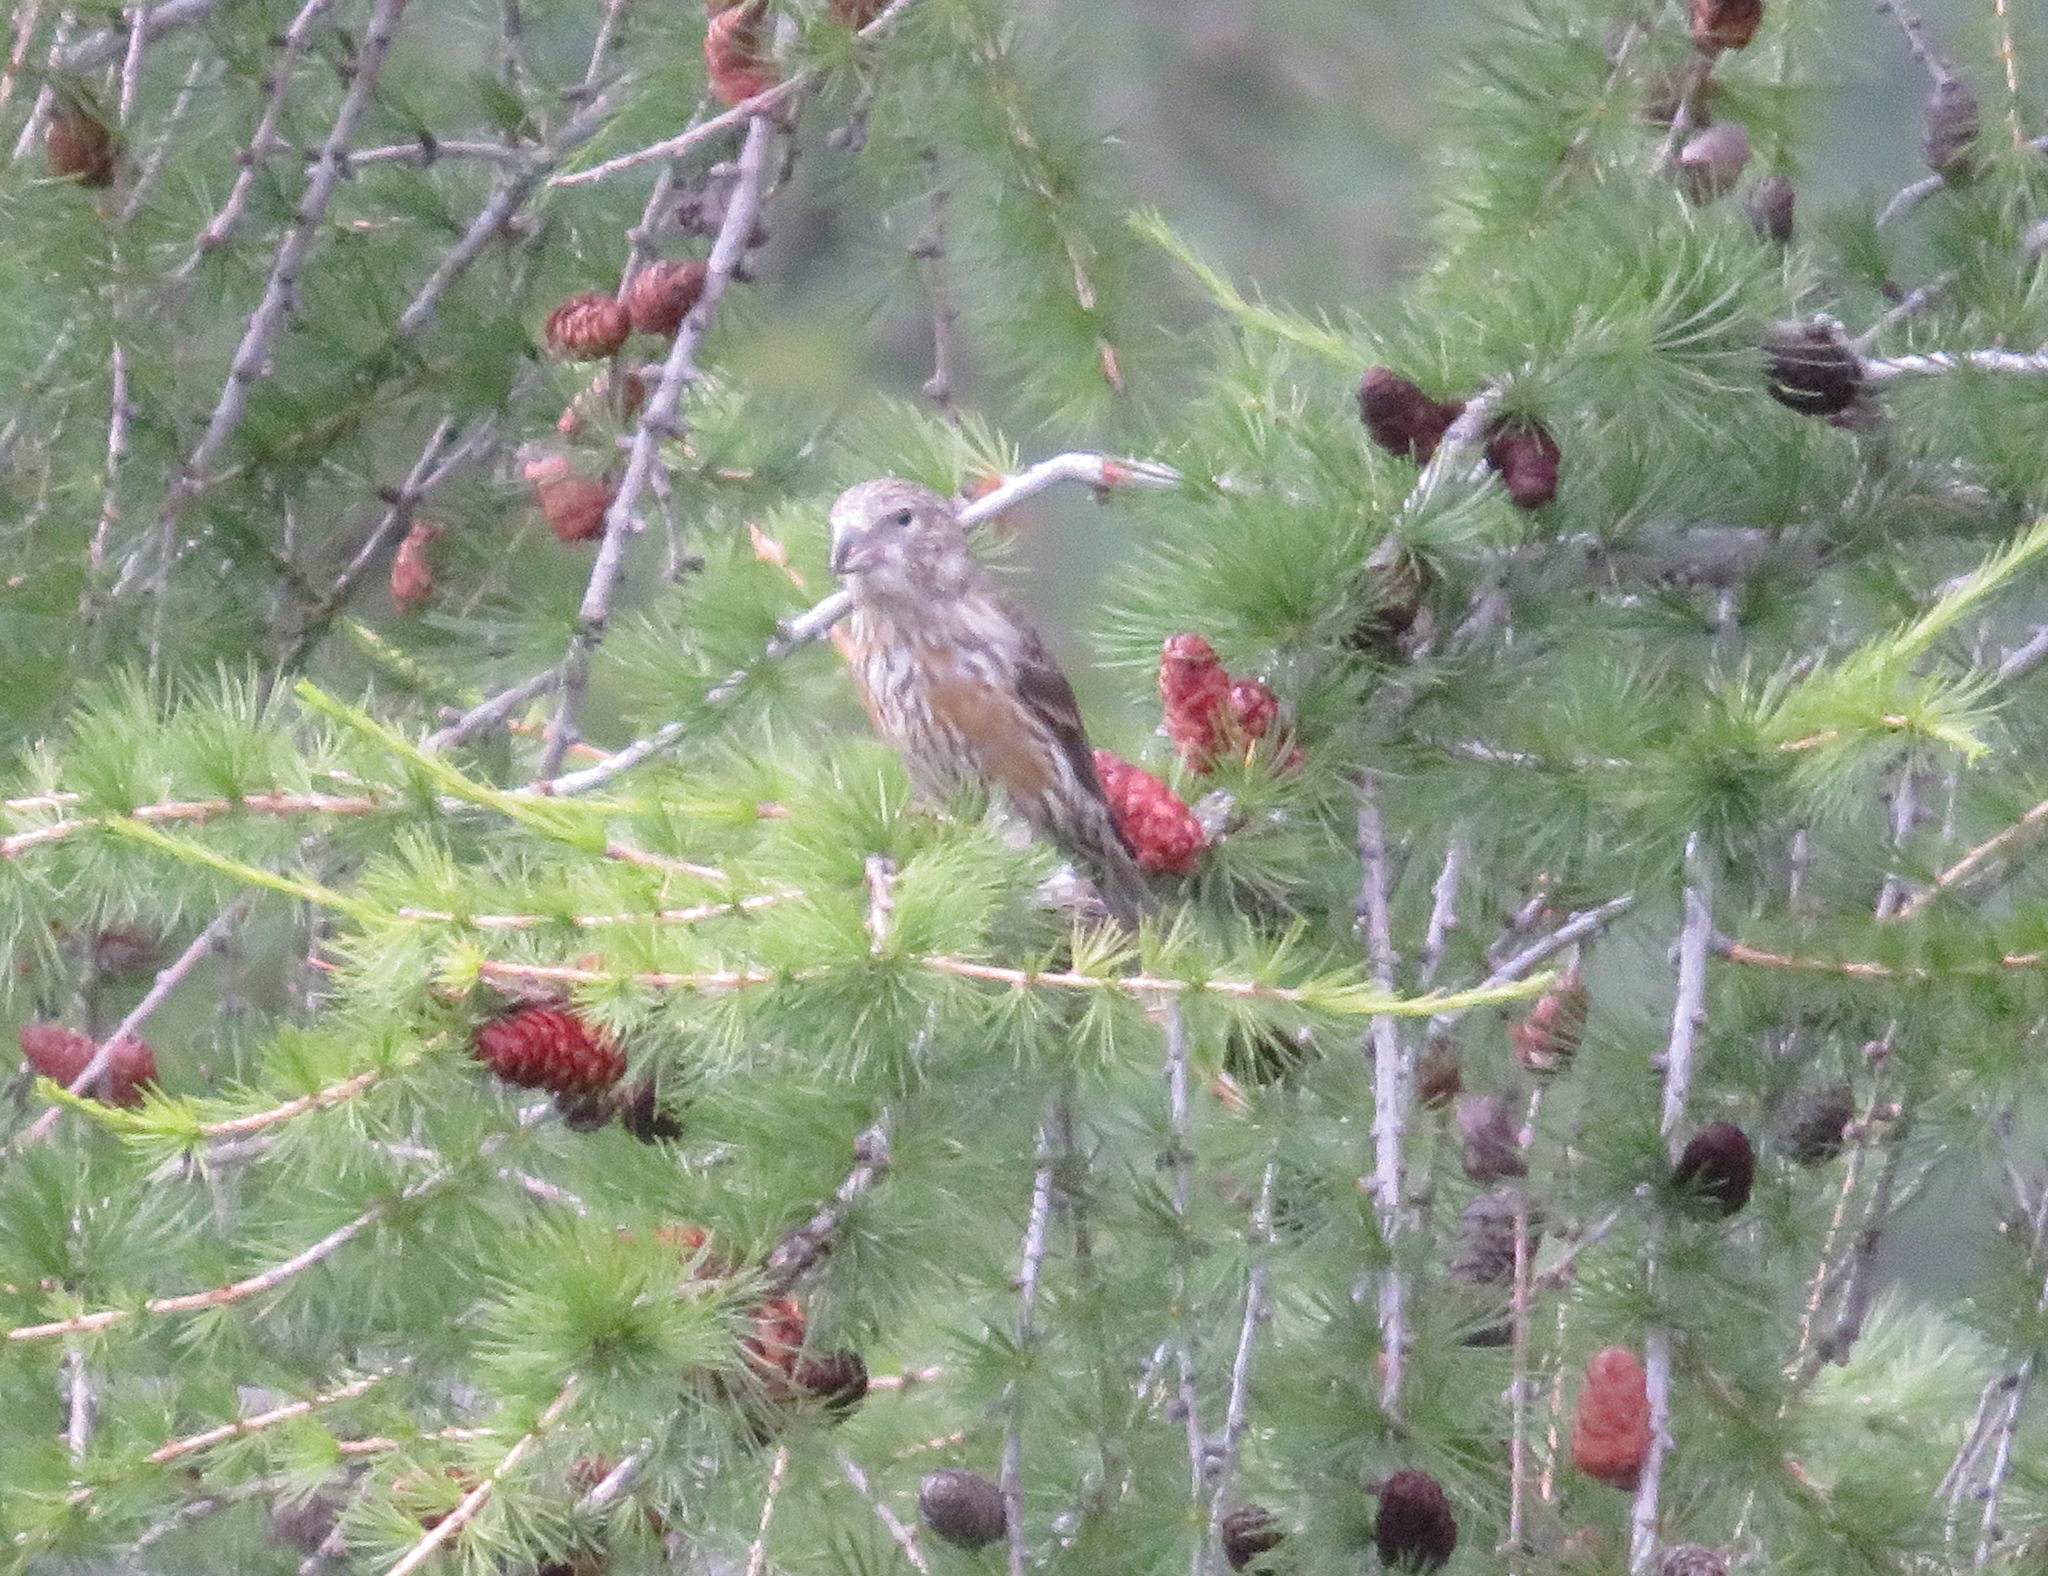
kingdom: Animalia
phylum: Chordata
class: Aves
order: Passeriformes
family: Fringillidae
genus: Loxia
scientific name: Loxia curvirostra
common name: Red crossbill
